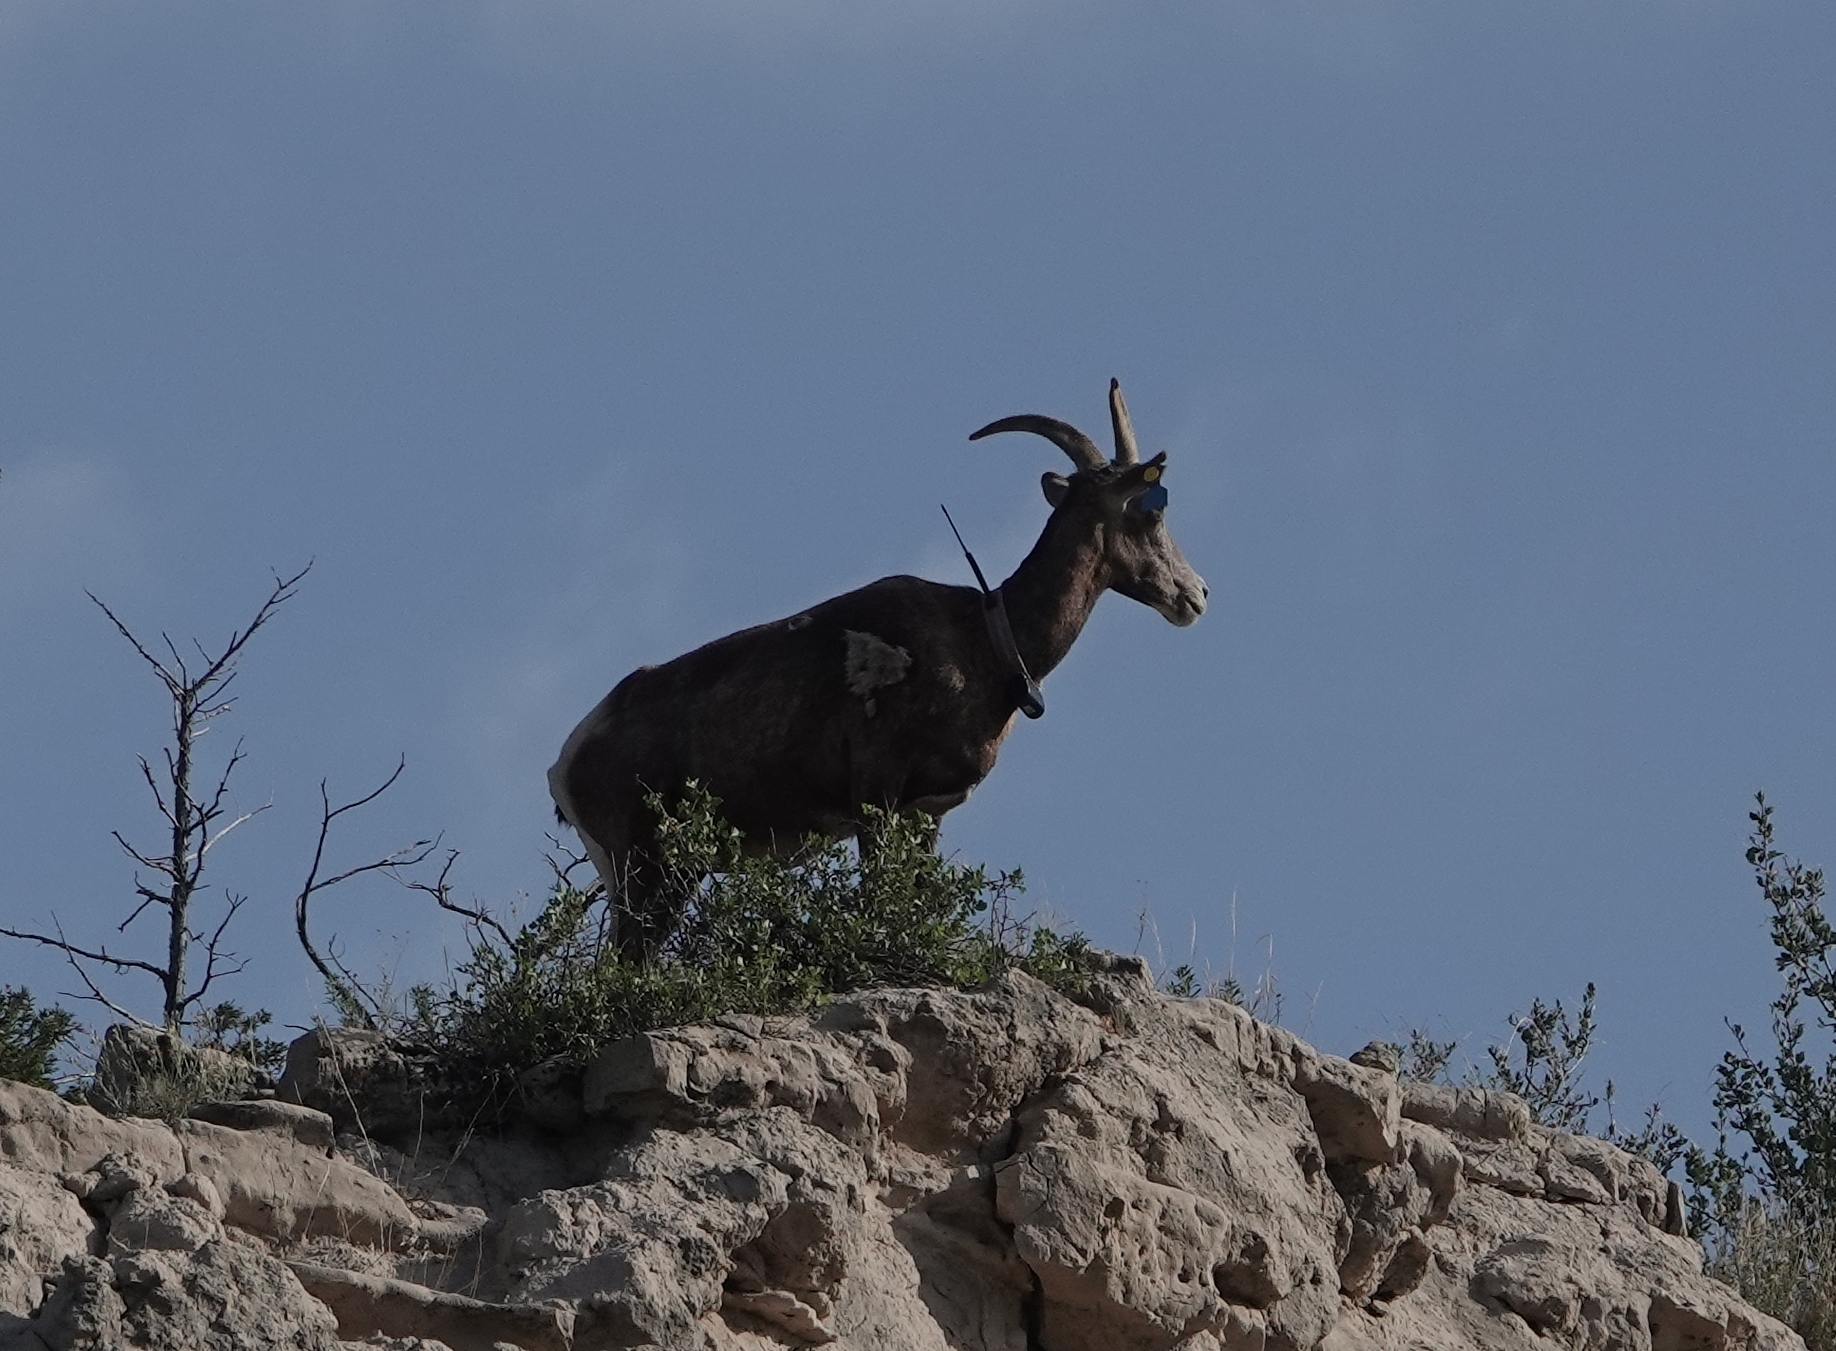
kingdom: Animalia
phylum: Chordata
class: Mammalia
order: Artiodactyla
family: Bovidae
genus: Ovis
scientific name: Ovis canadensis
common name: Bighorn sheep
